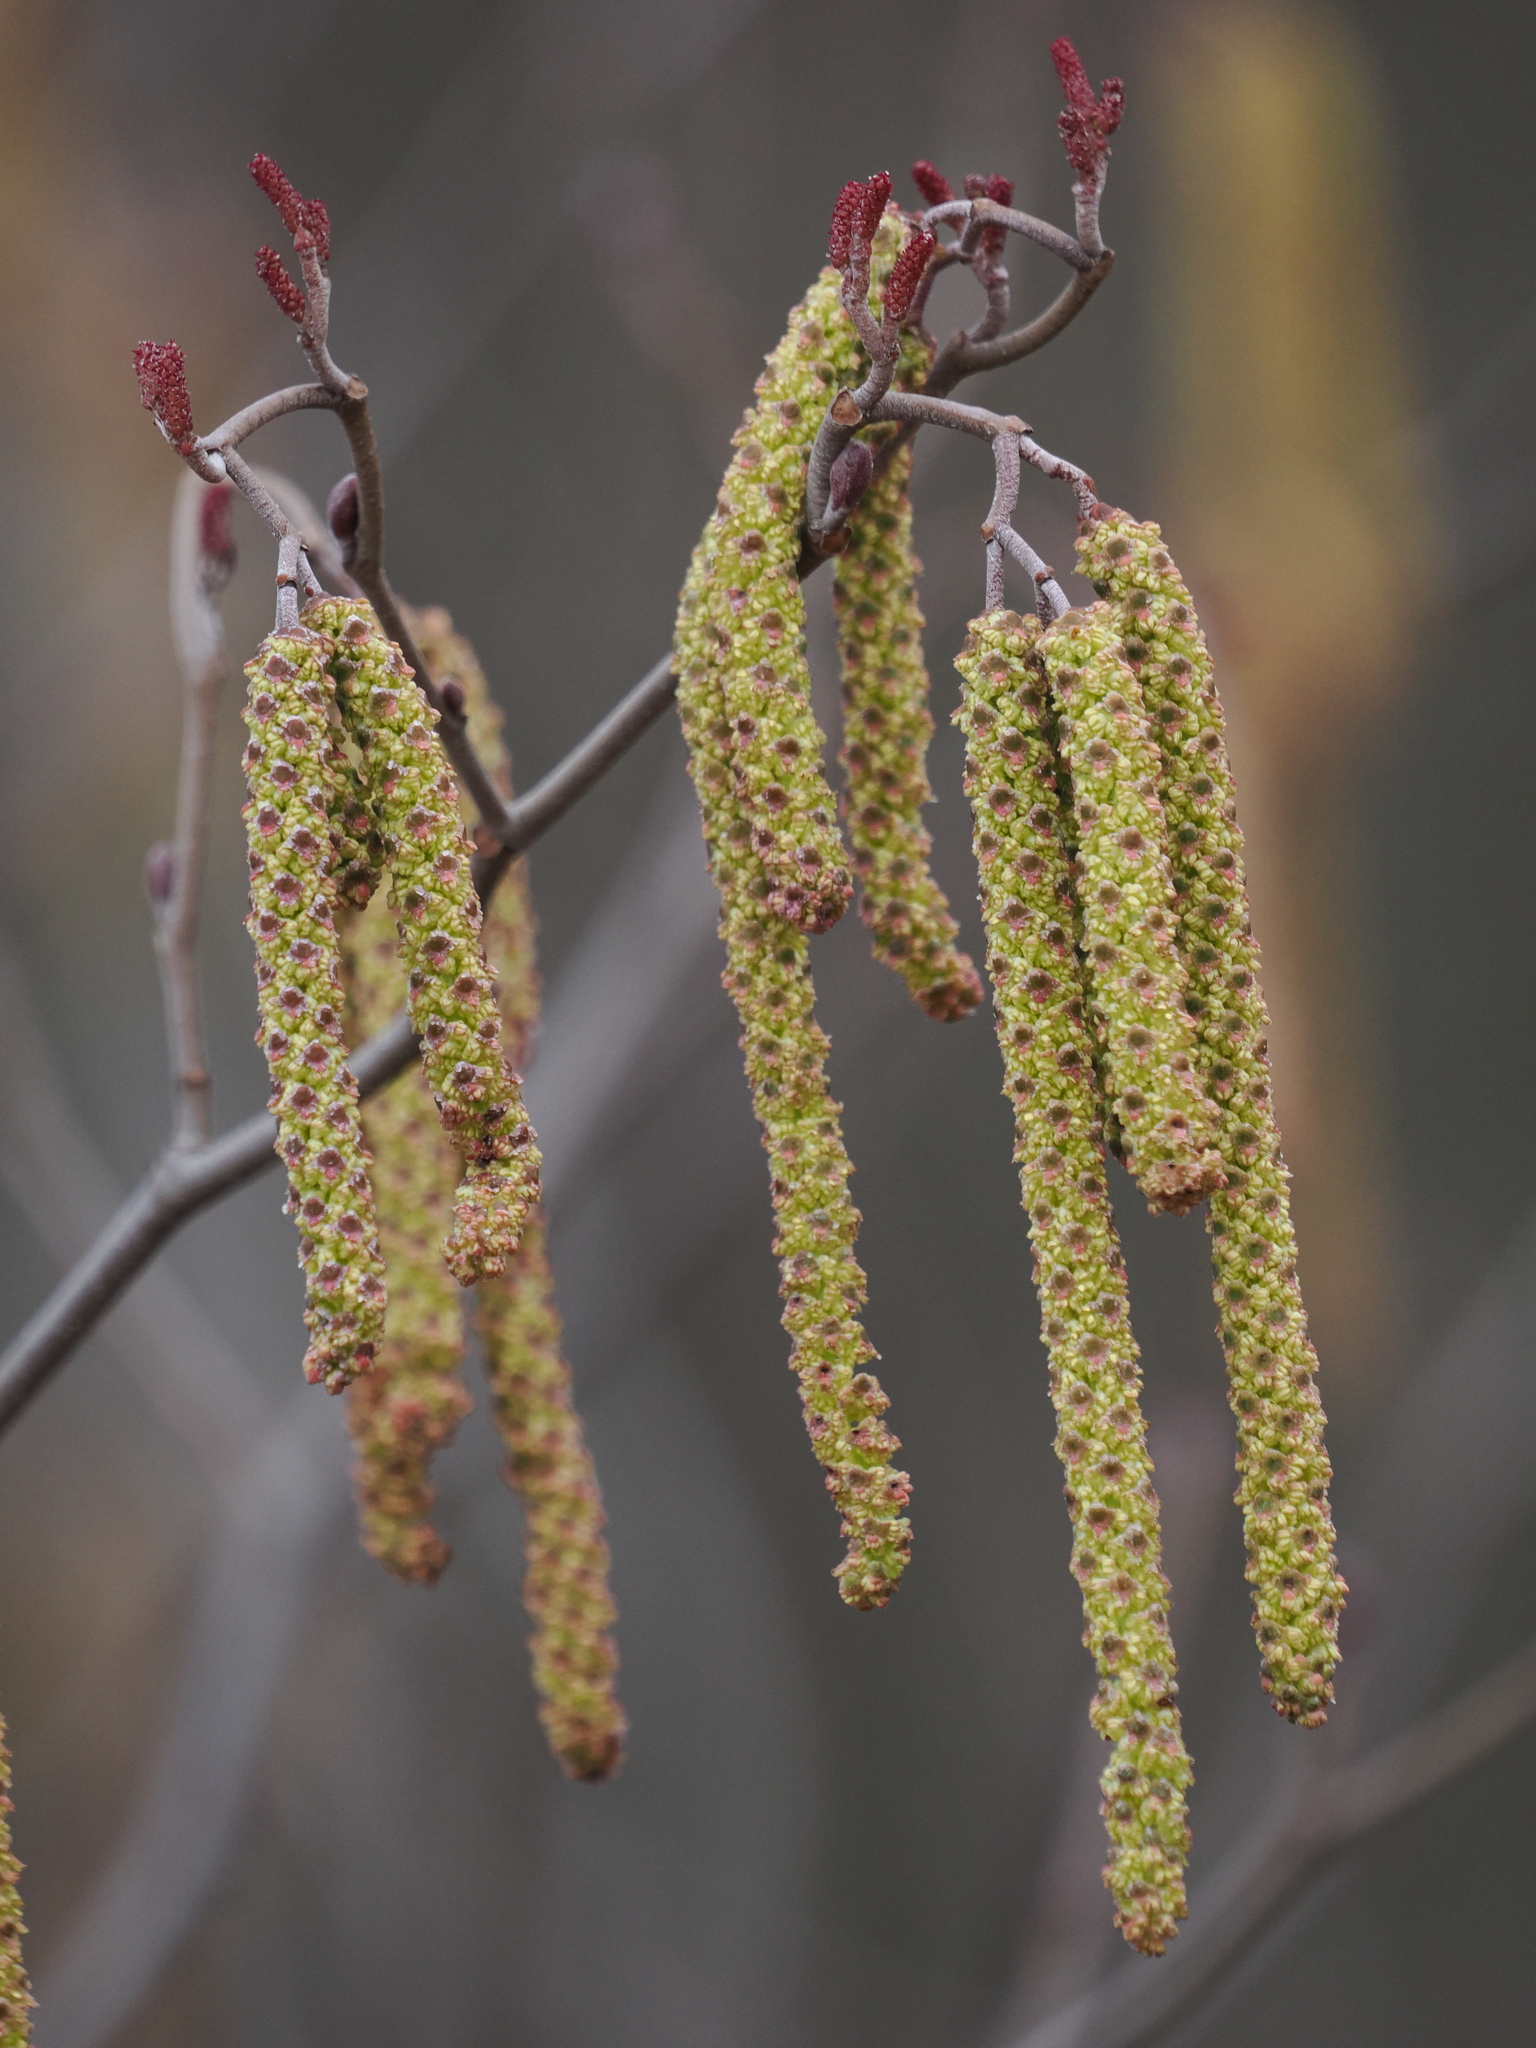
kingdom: Plantae
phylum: Tracheophyta
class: Magnoliopsida
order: Fagales
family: Betulaceae
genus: Alnus
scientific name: Alnus serrulata
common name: Hazel alder
